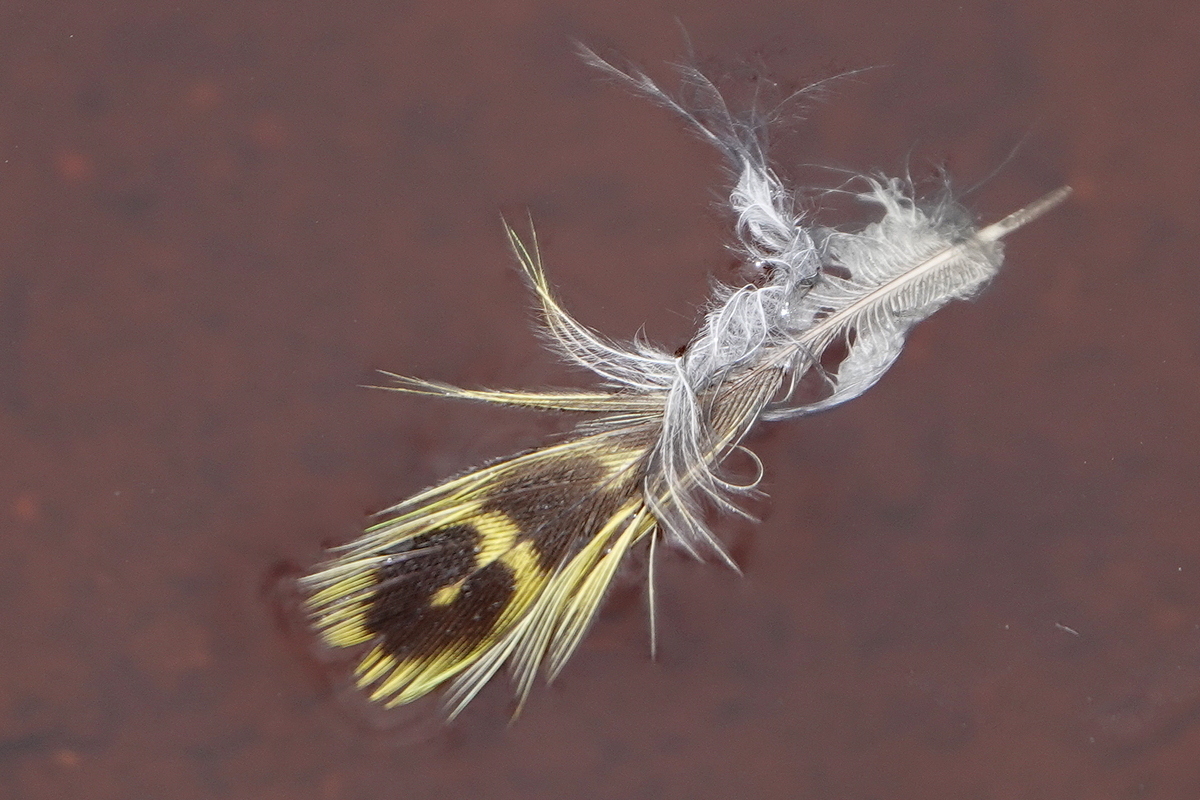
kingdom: Animalia
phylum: Chordata
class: Aves
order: Psittaciformes
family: Psittacidae
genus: Pezoporus
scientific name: Pezoporus wallicus
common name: Ground parrot
